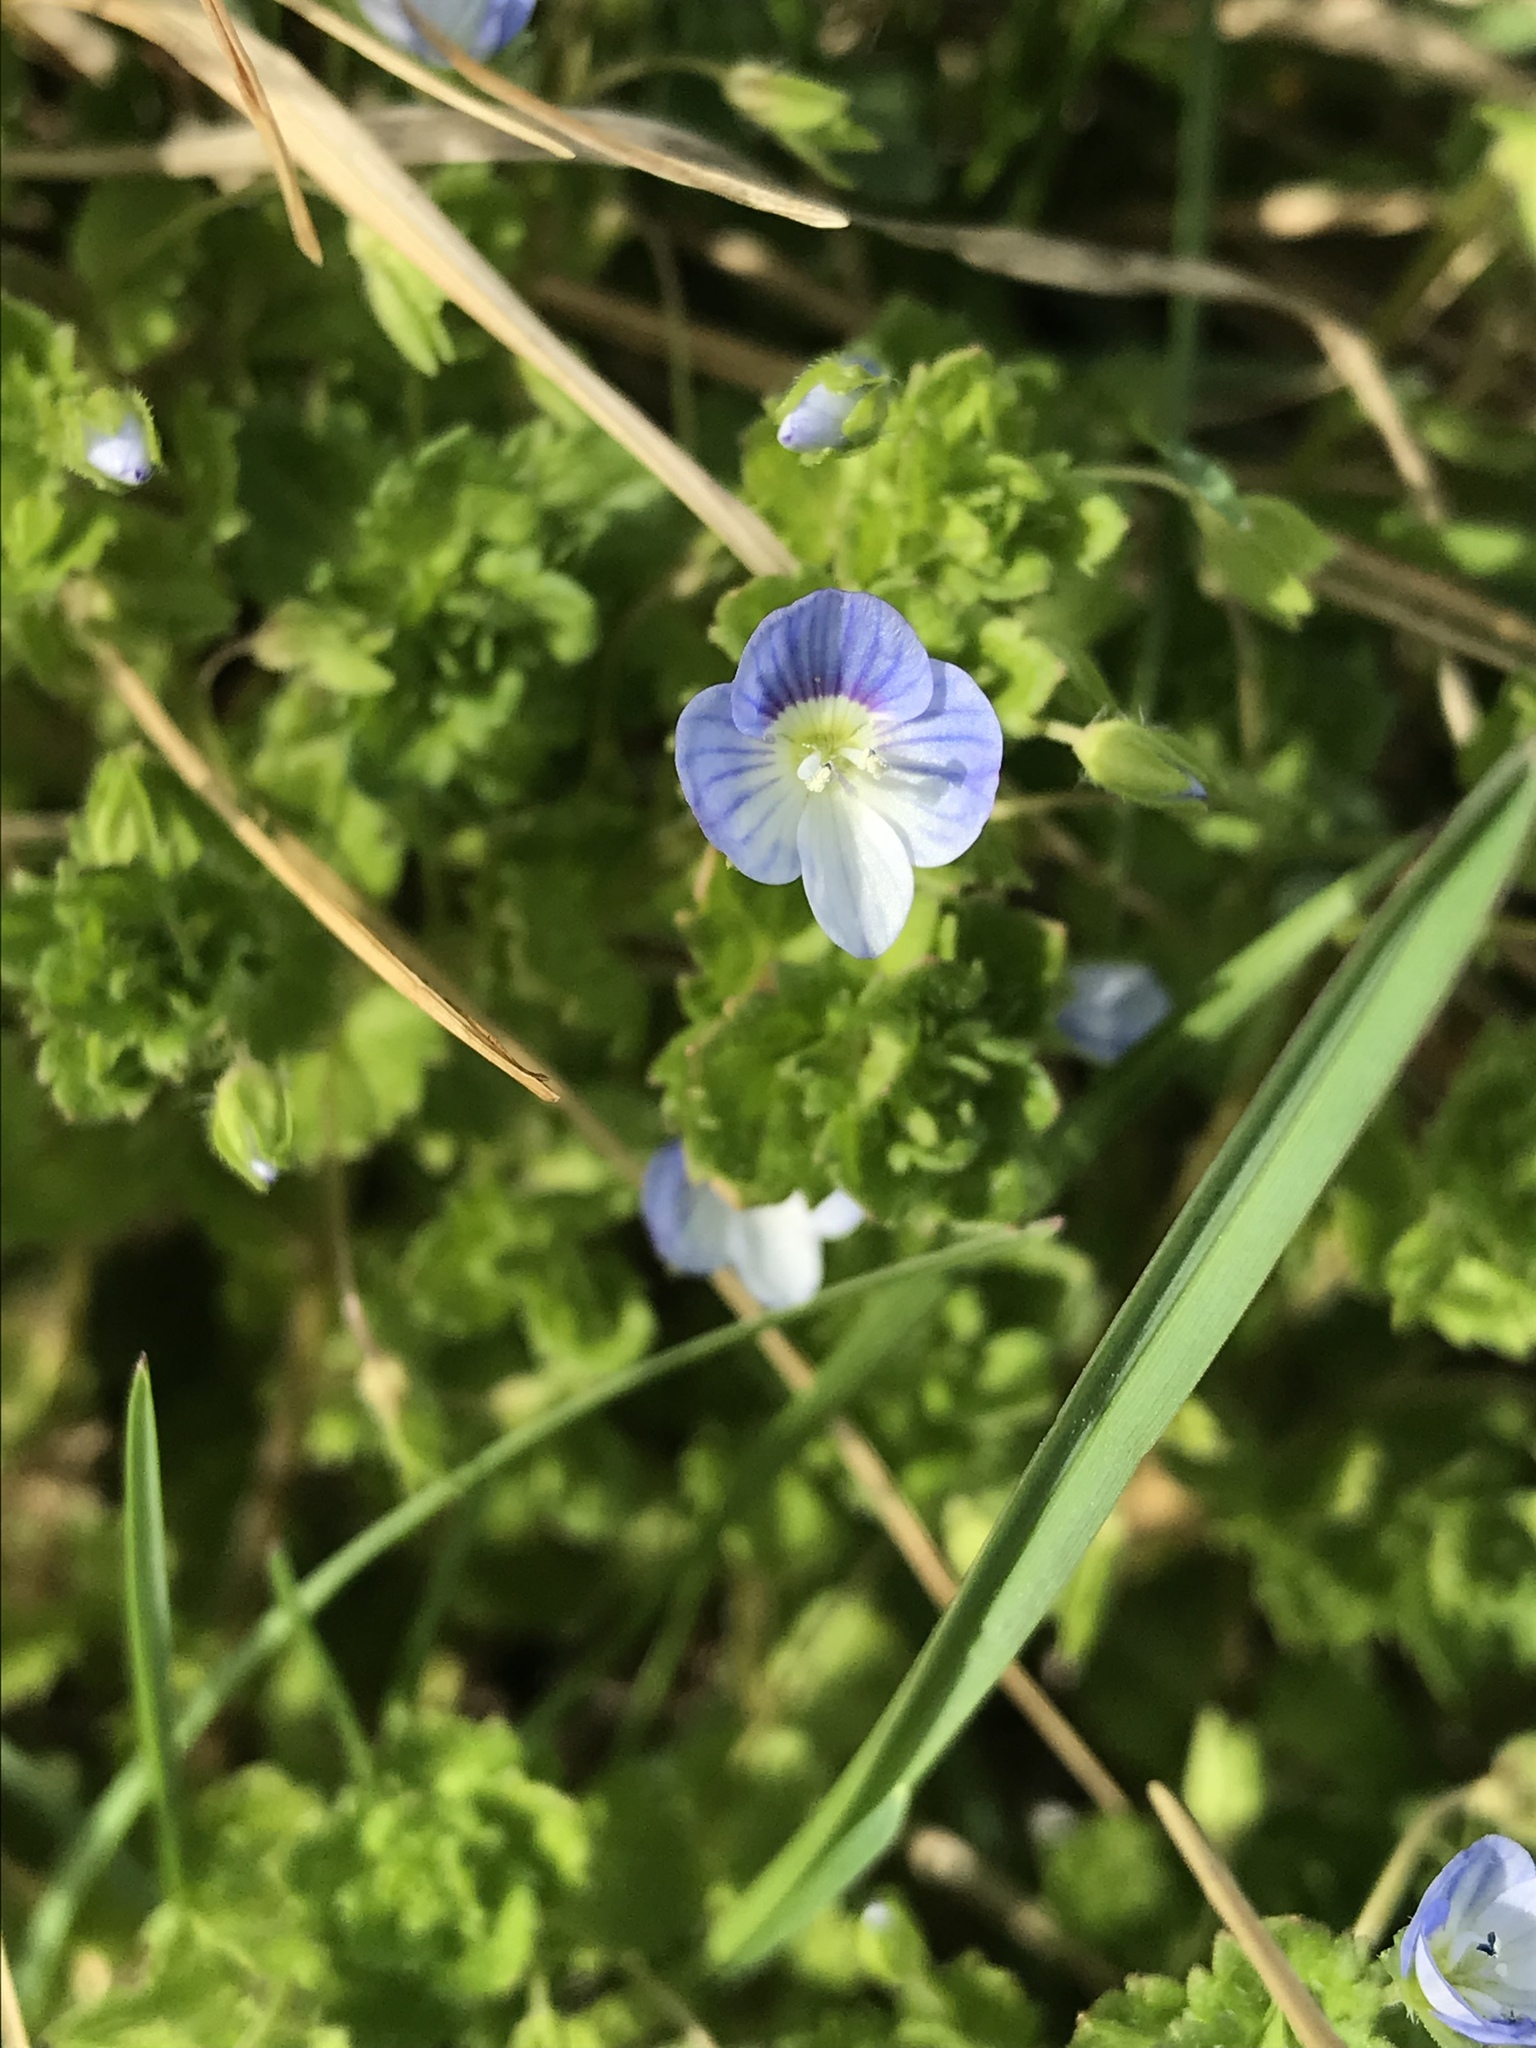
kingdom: Plantae
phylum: Tracheophyta
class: Magnoliopsida
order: Lamiales
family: Plantaginaceae
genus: Veronica
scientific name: Veronica persica
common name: Common field-speedwell
